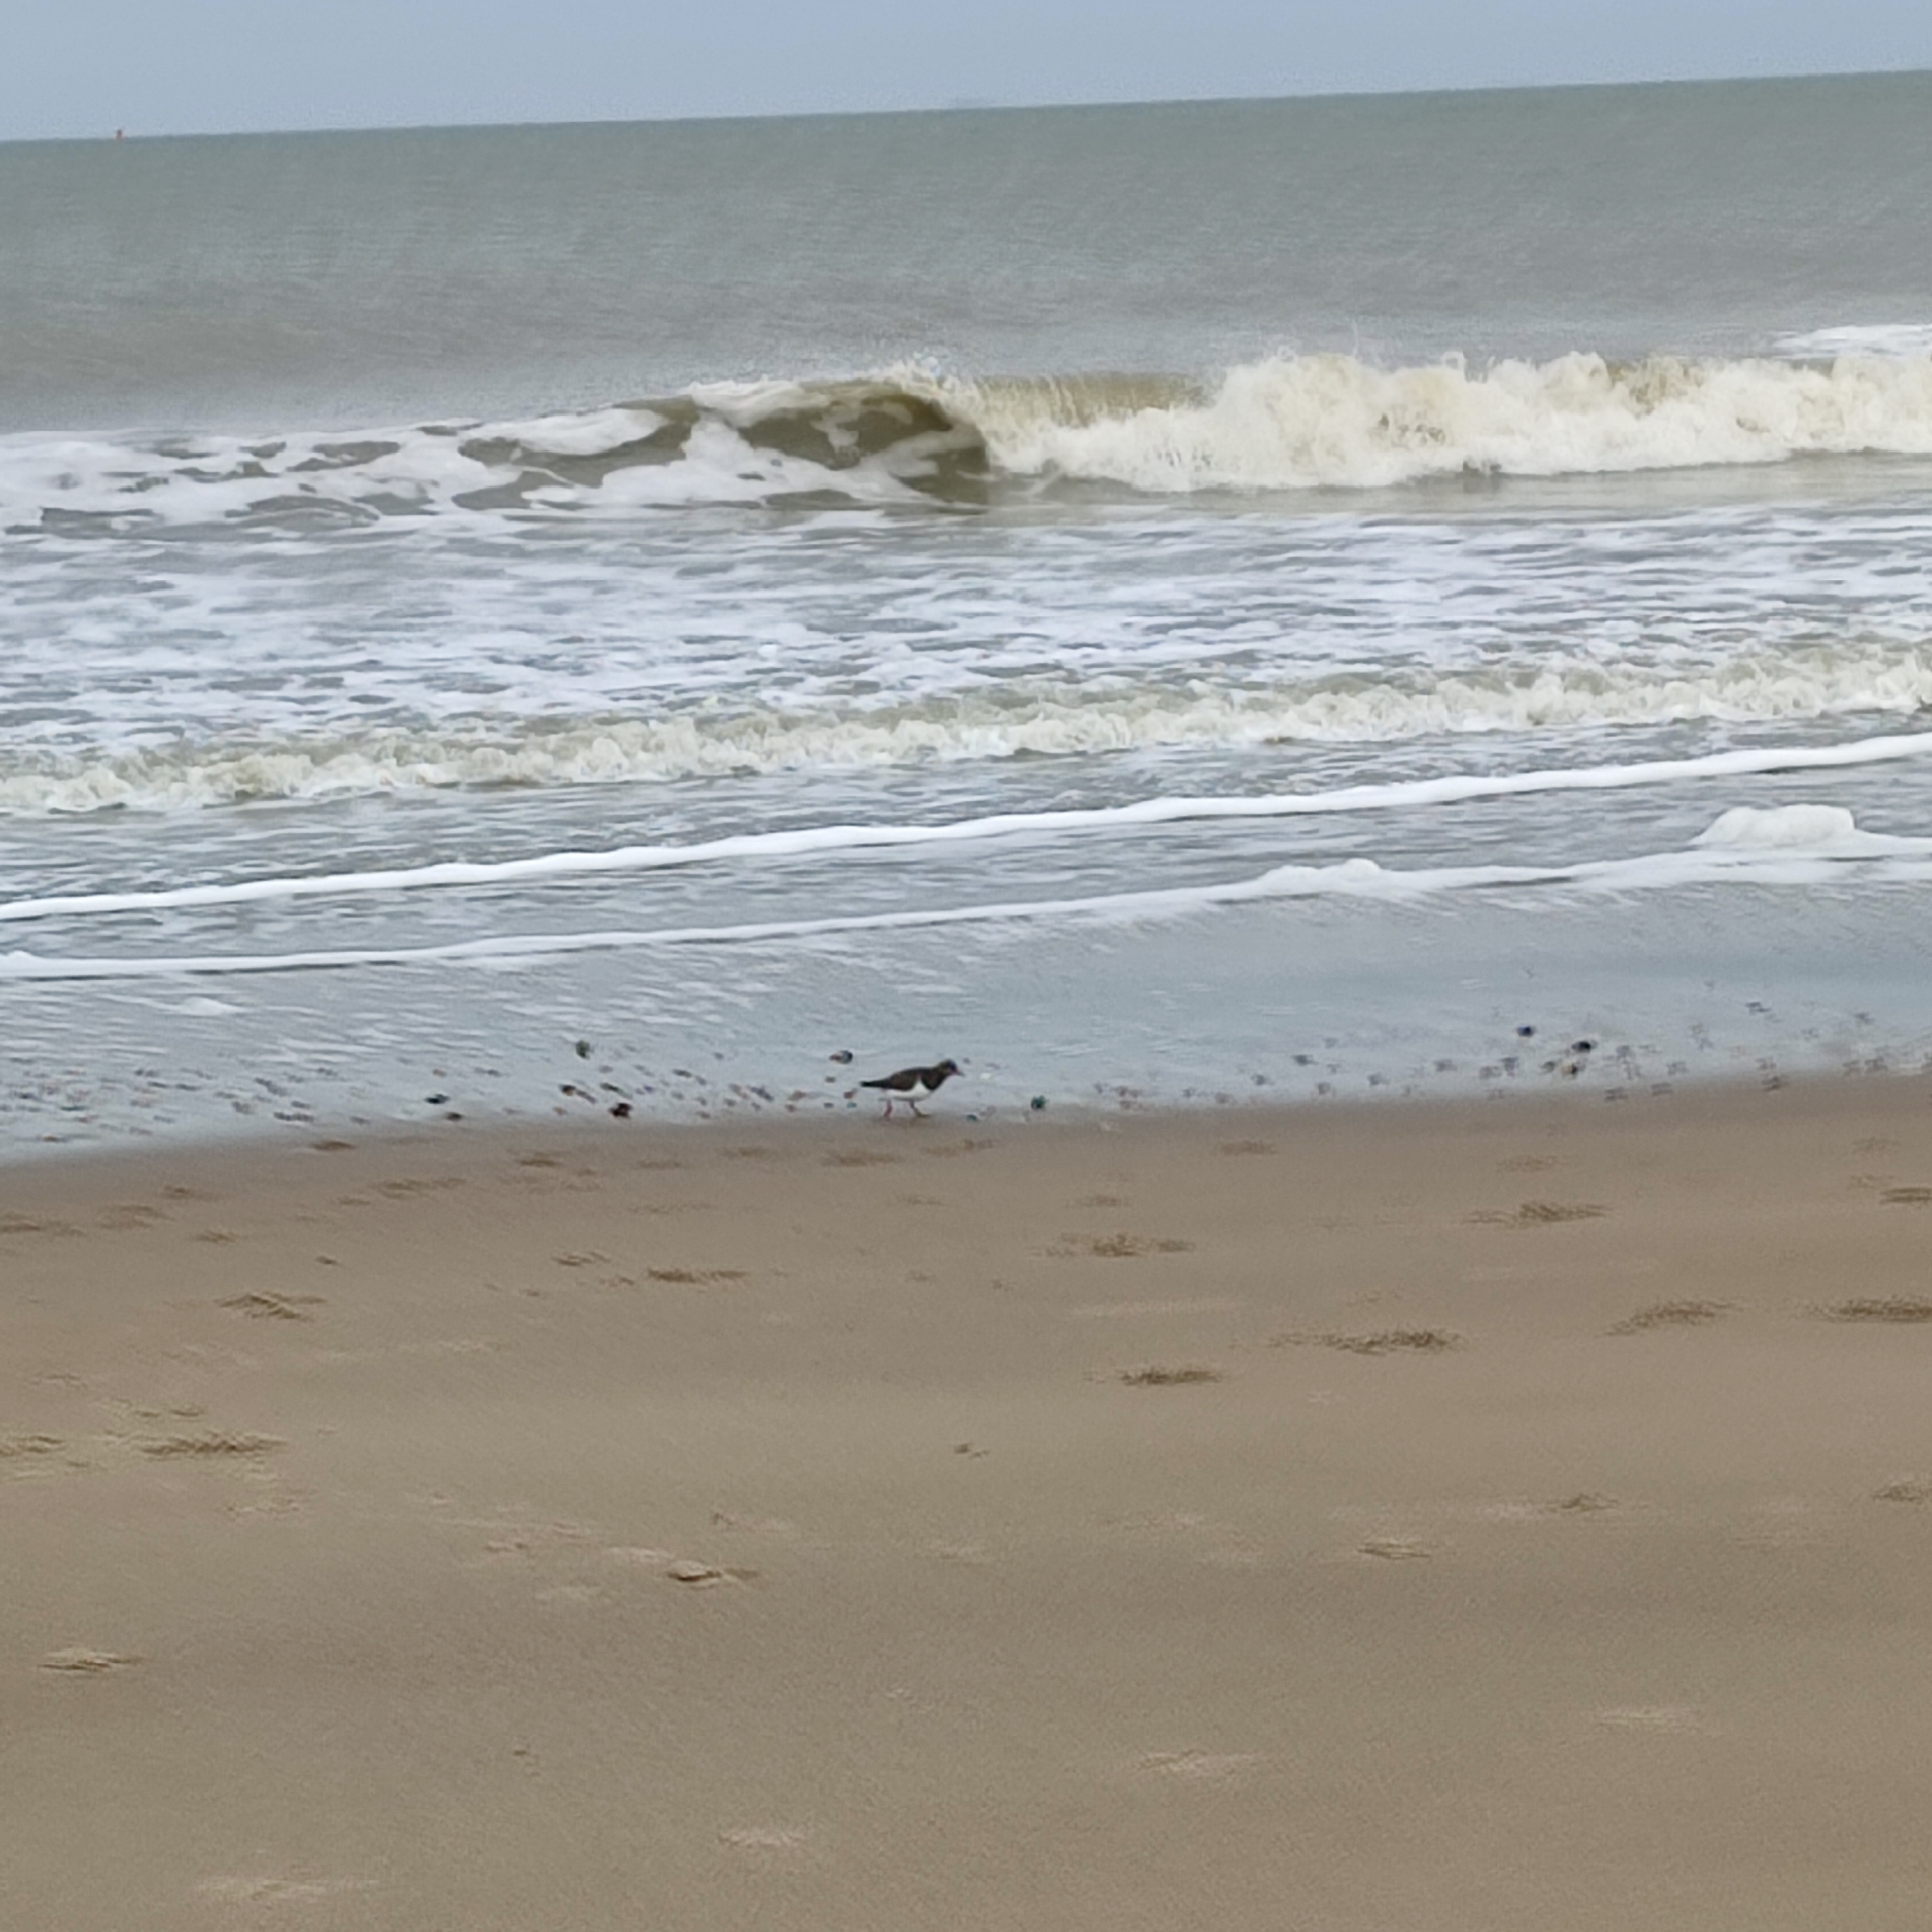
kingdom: Animalia
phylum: Chordata
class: Aves
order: Charadriiformes
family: Scolopacidae
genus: Arenaria
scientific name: Arenaria interpres
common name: Ruddy turnstone
